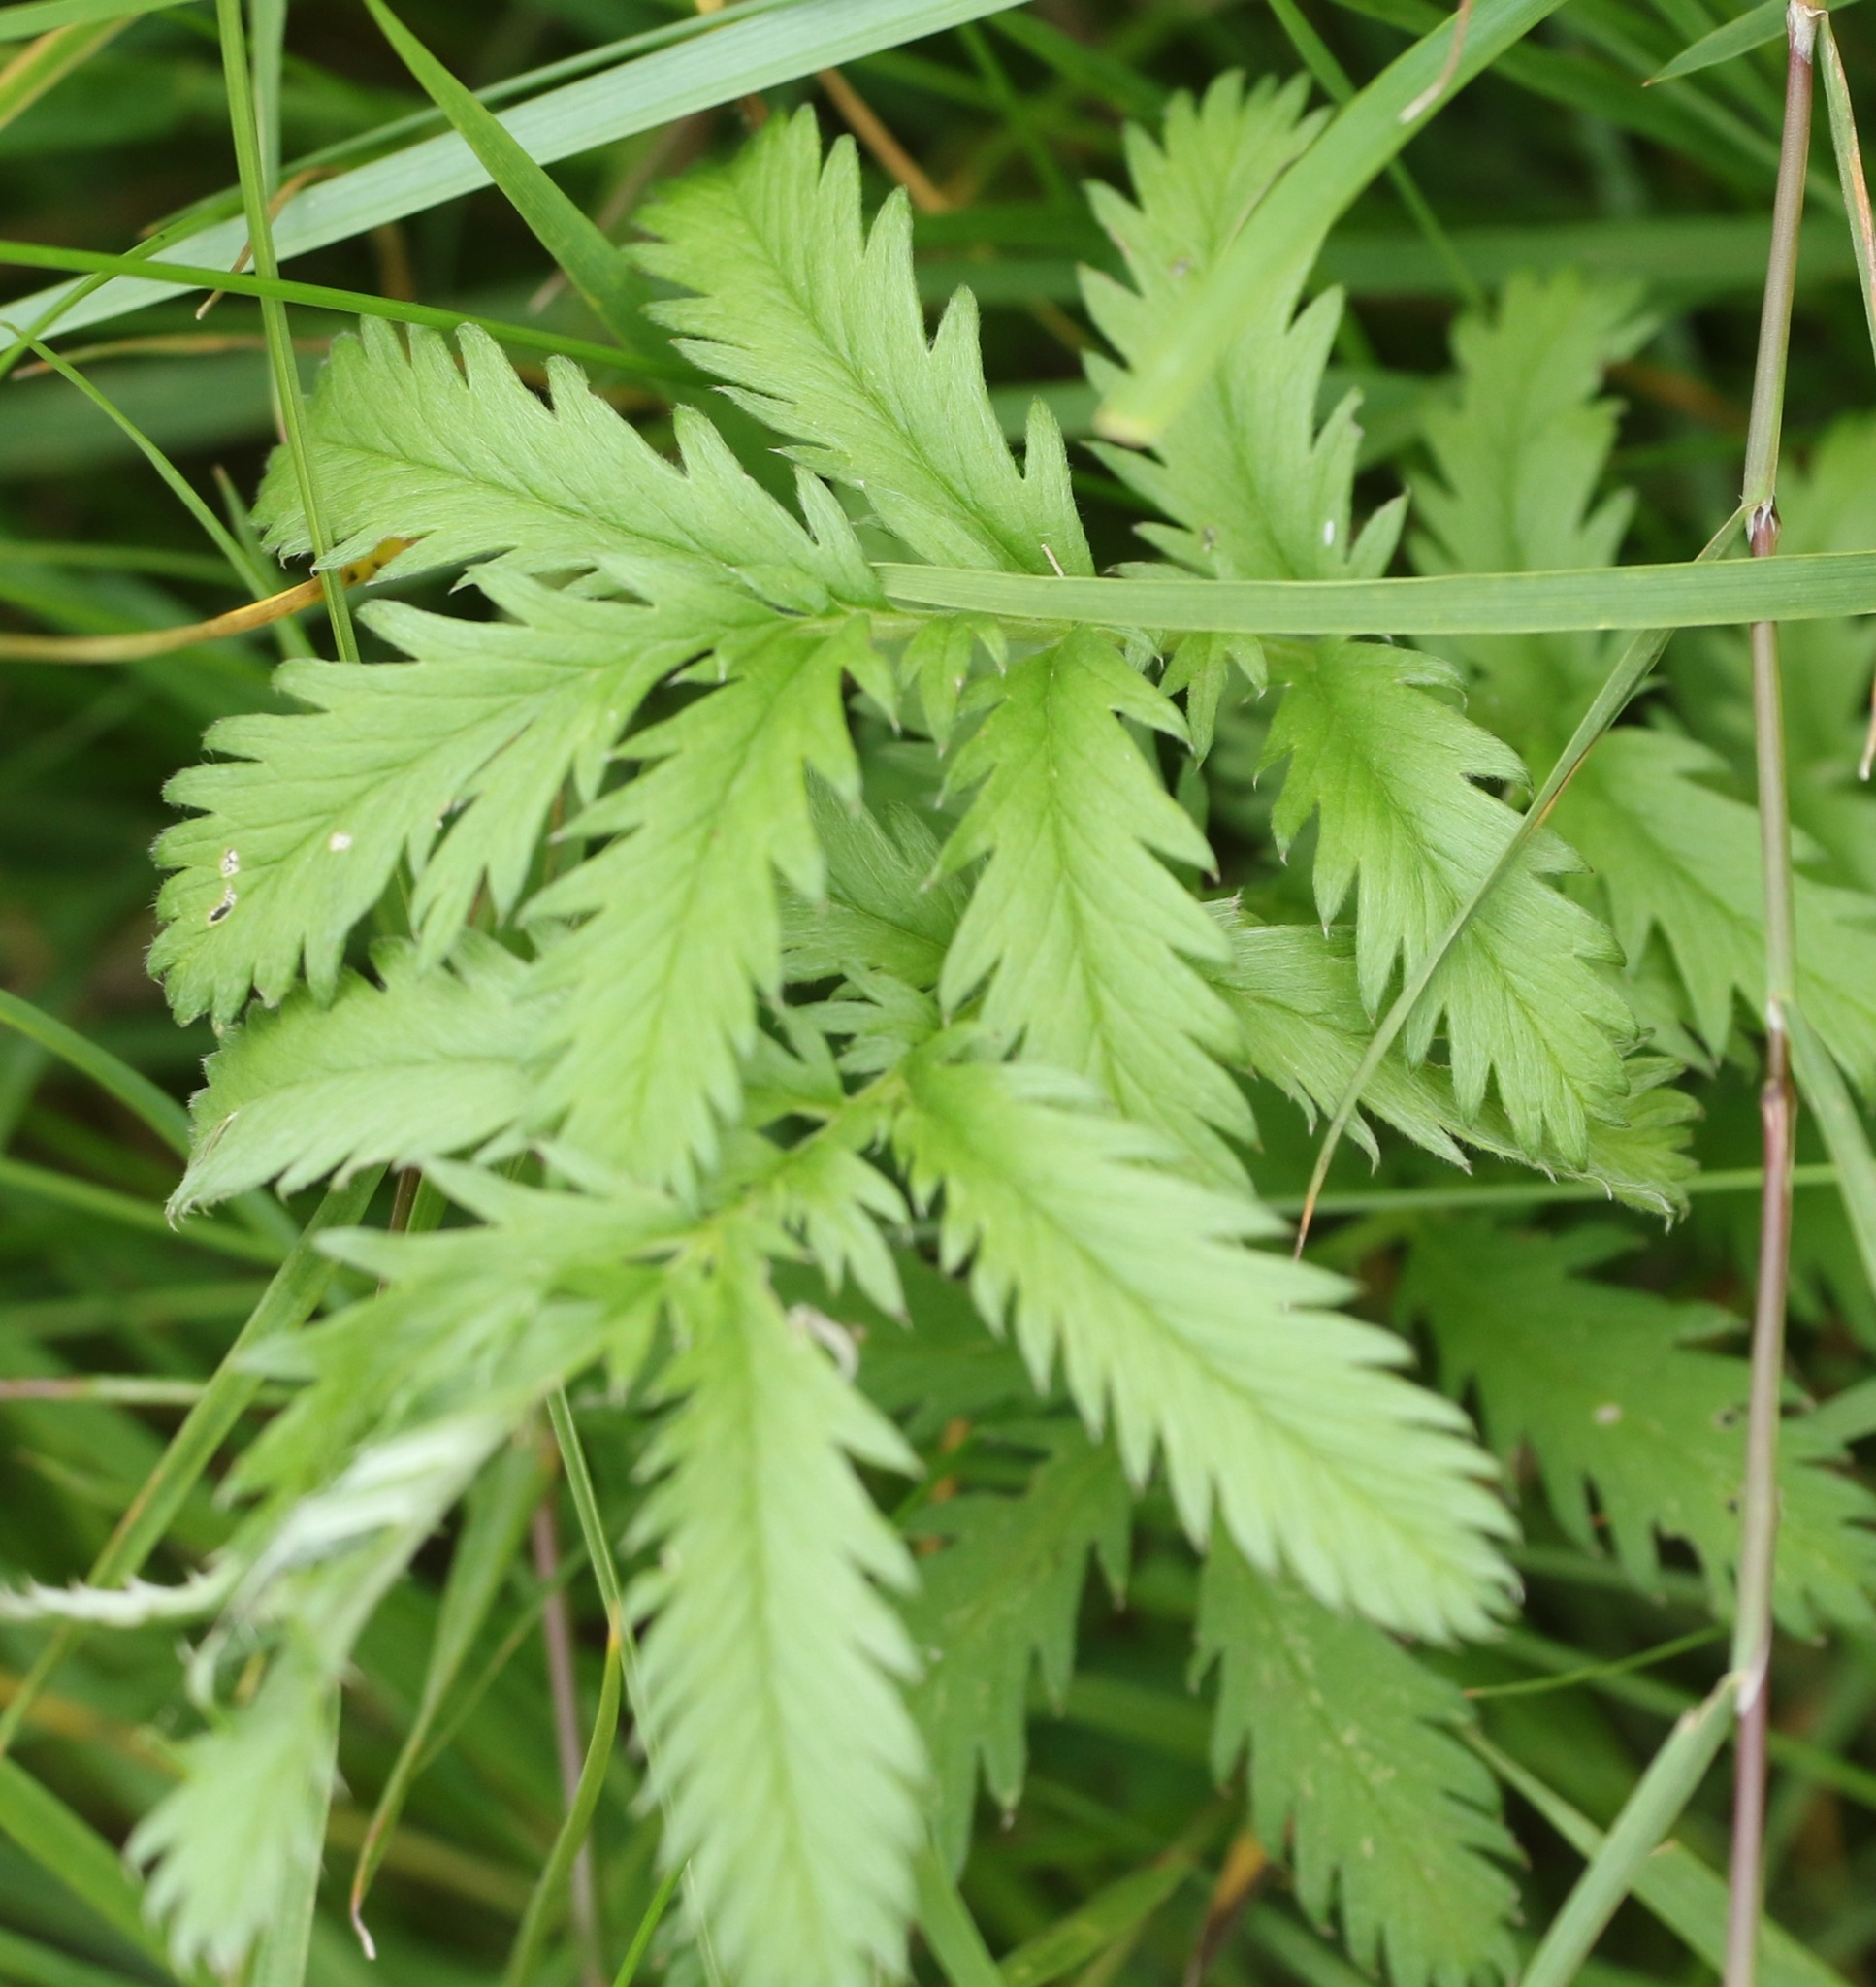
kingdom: Plantae
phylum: Tracheophyta
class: Magnoliopsida
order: Rosales
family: Rosaceae
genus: Argentina
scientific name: Argentina anserina
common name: Common silverweed
